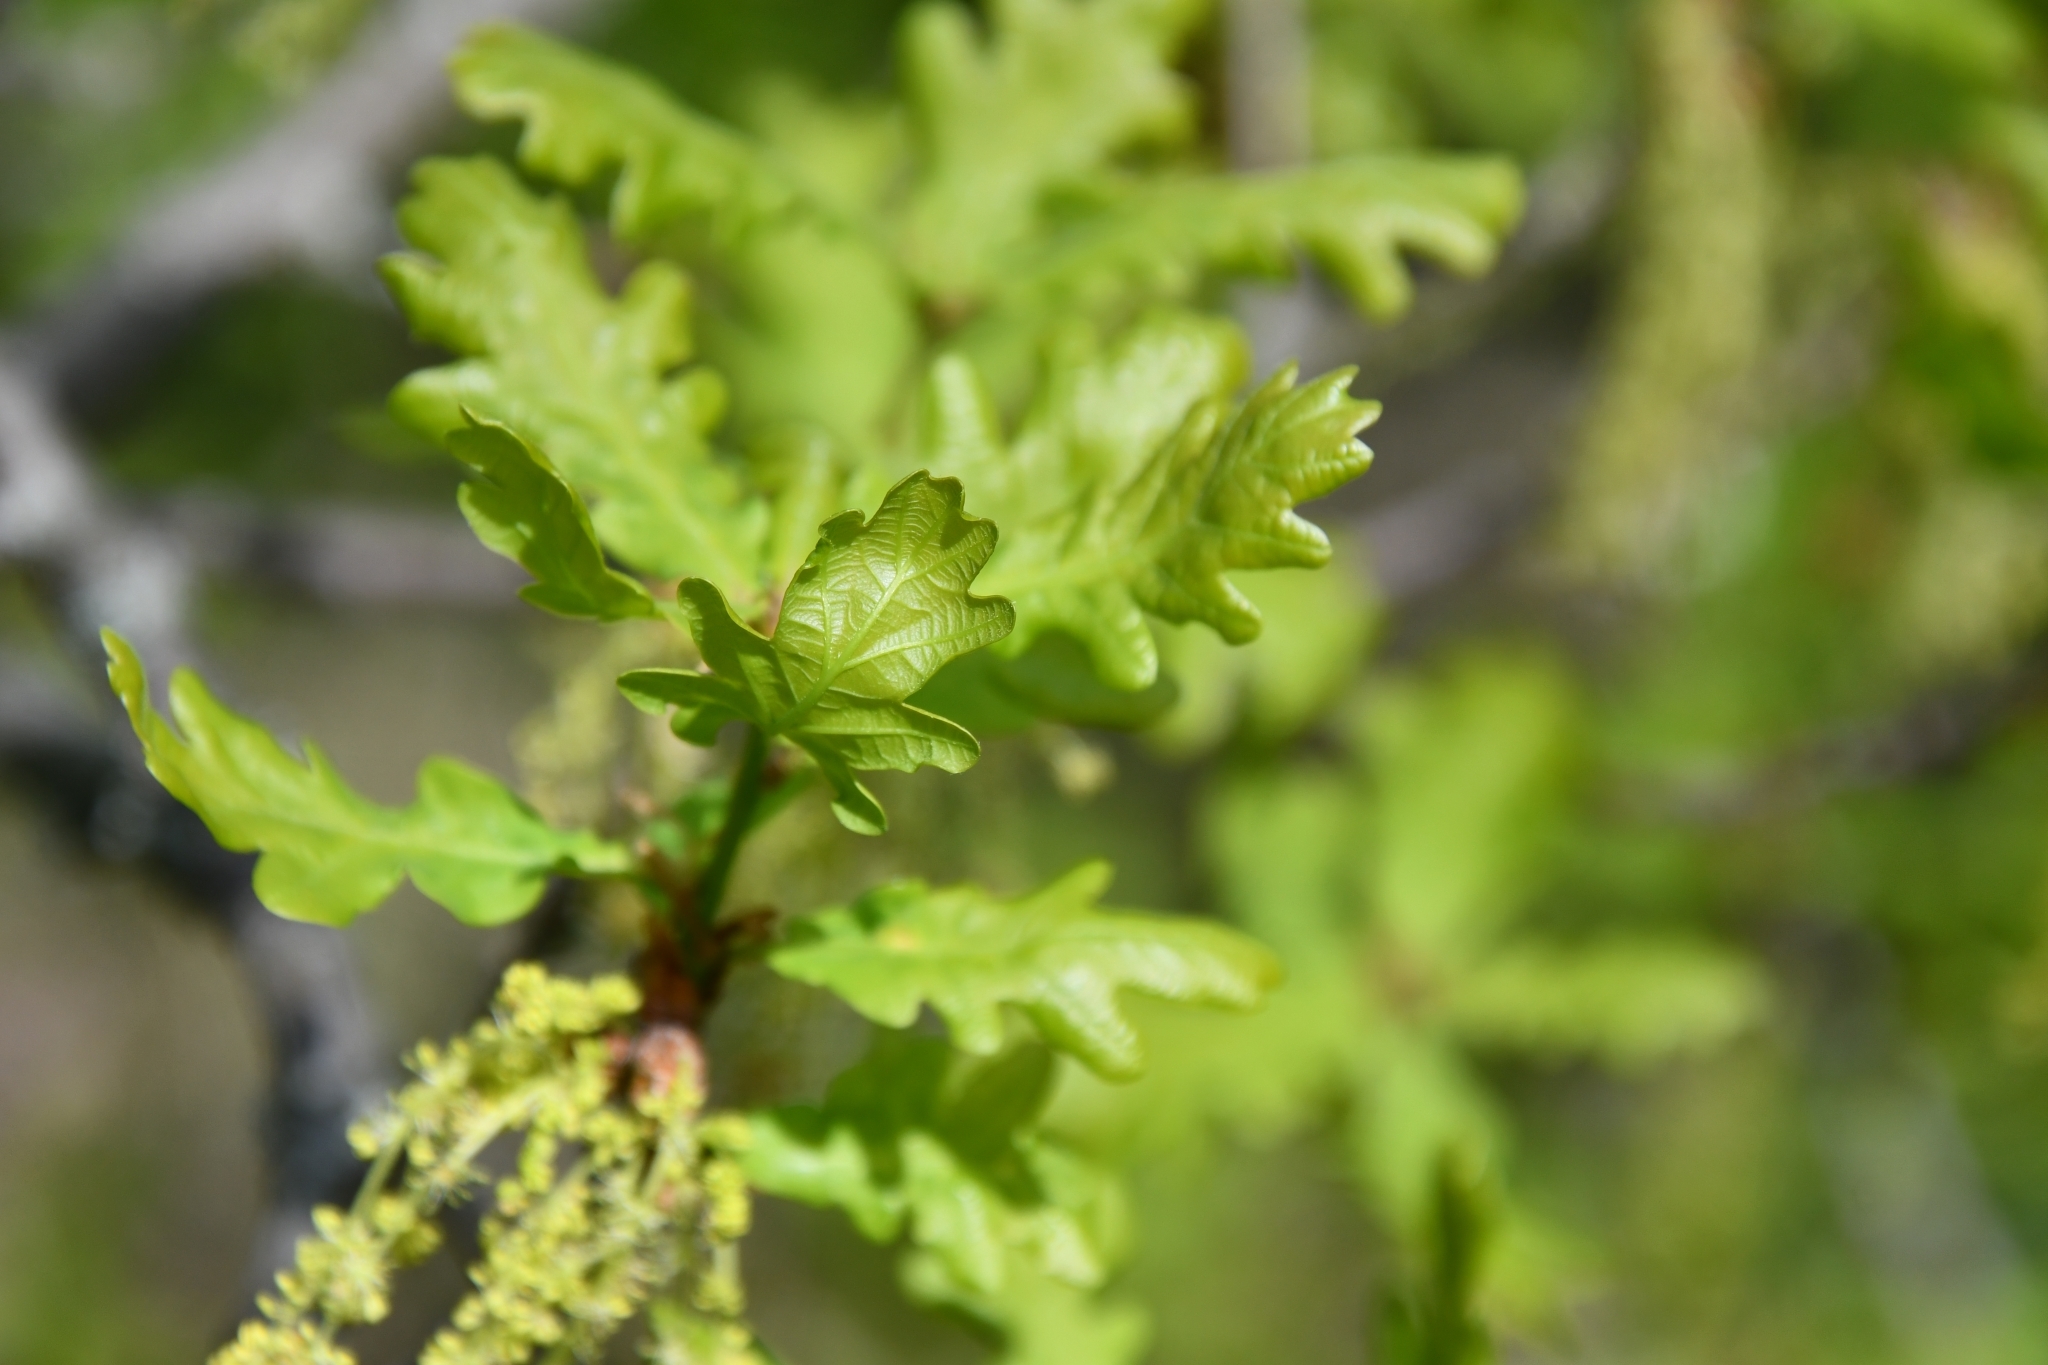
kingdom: Plantae
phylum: Tracheophyta
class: Magnoliopsida
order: Fagales
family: Fagaceae
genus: Quercus
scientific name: Quercus robur
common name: Pedunculate oak
